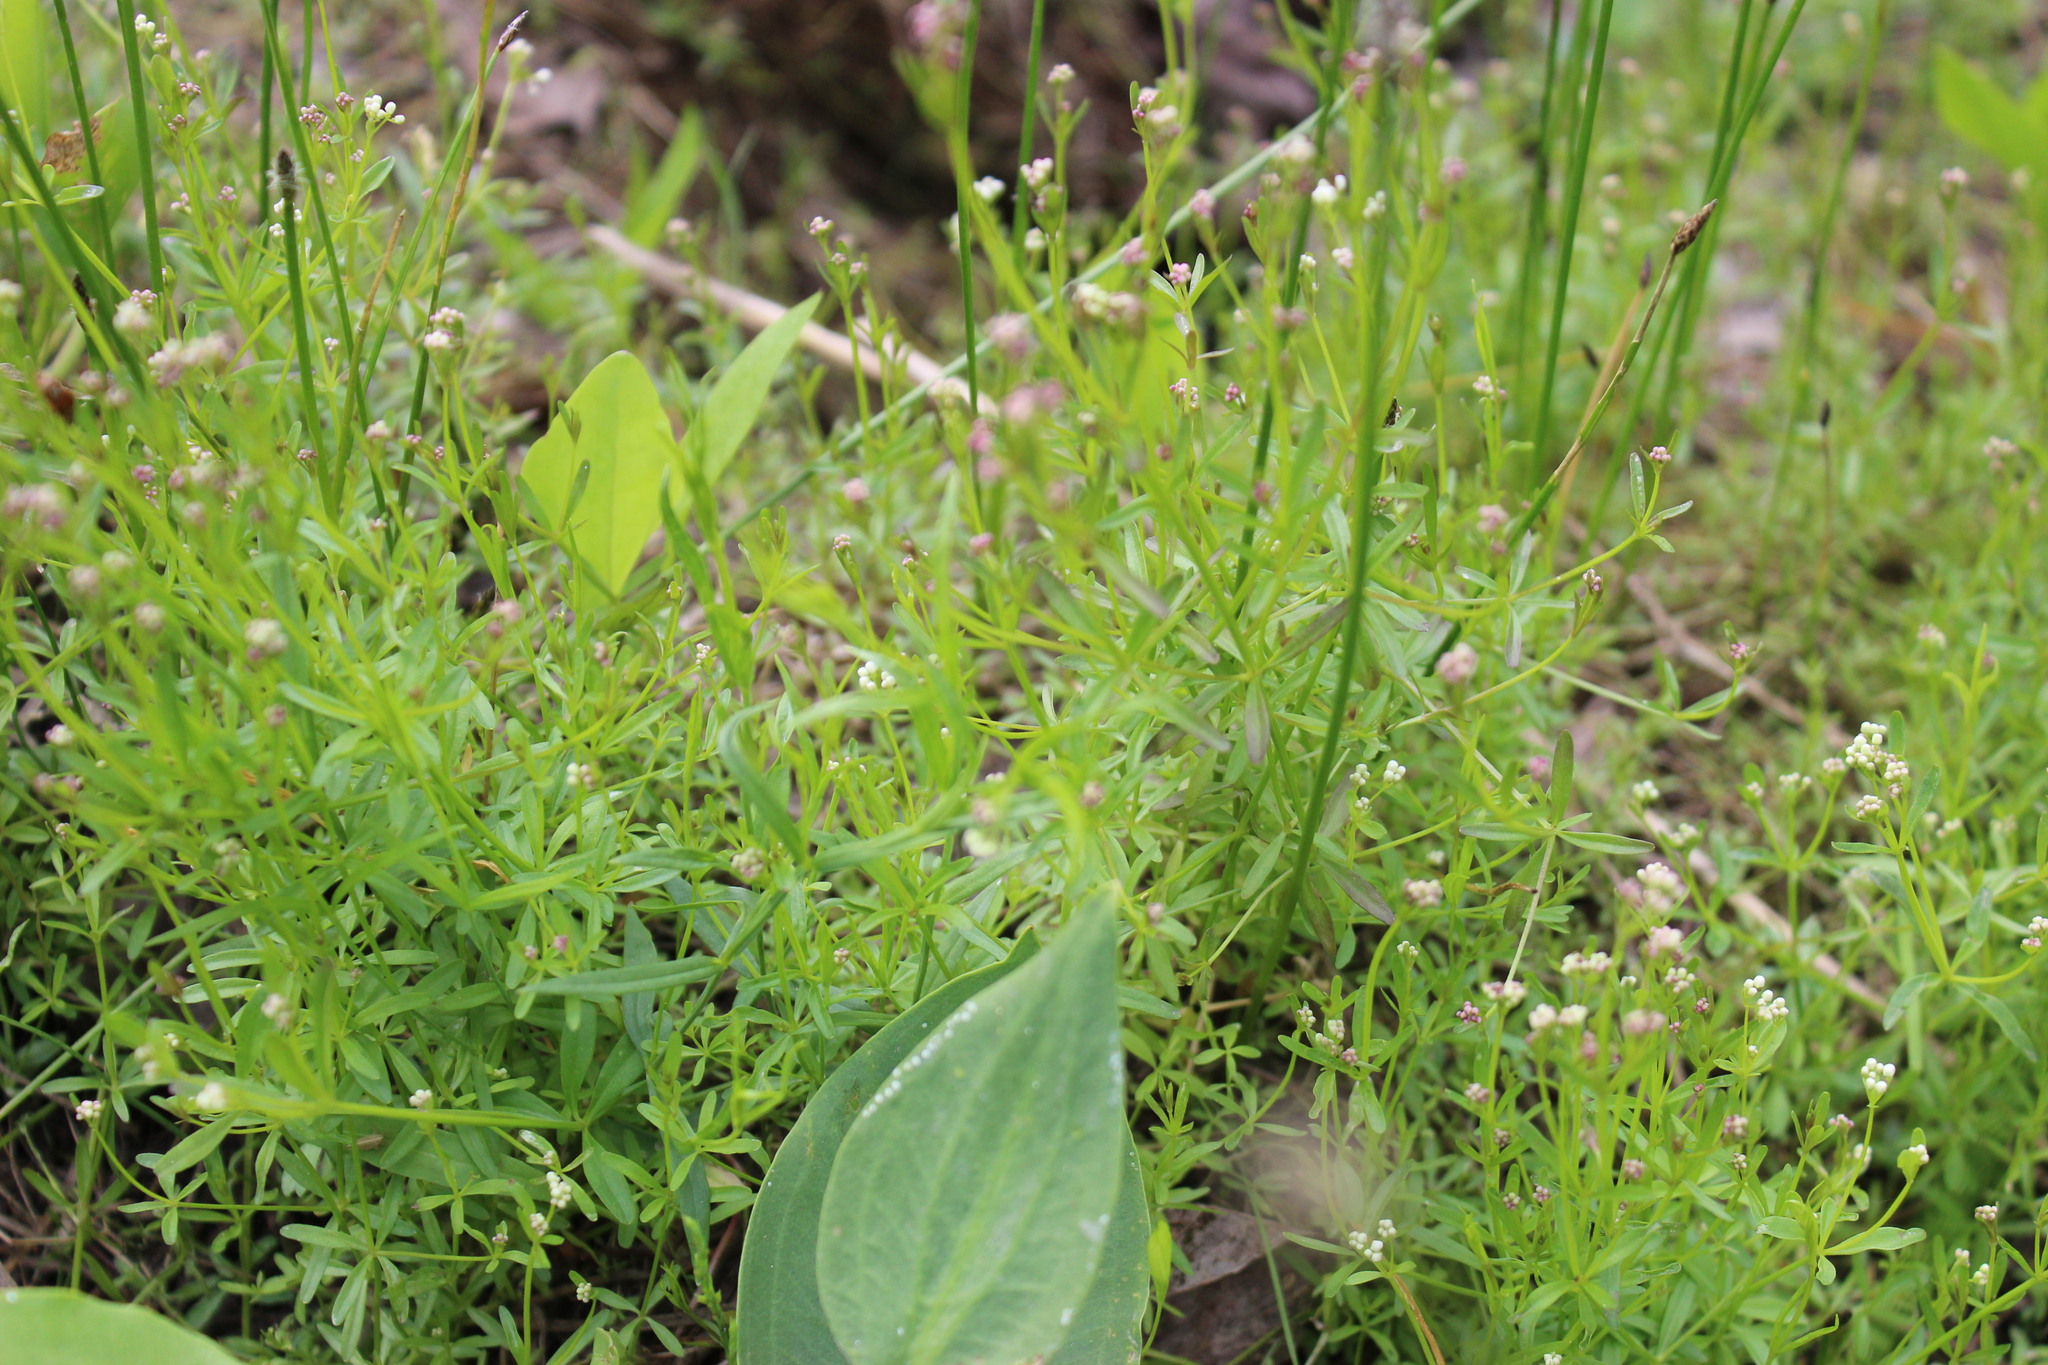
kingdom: Plantae
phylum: Tracheophyta
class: Magnoliopsida
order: Gentianales
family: Rubiaceae
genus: Galium
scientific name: Galium palustre
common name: Common marsh-bedstraw
